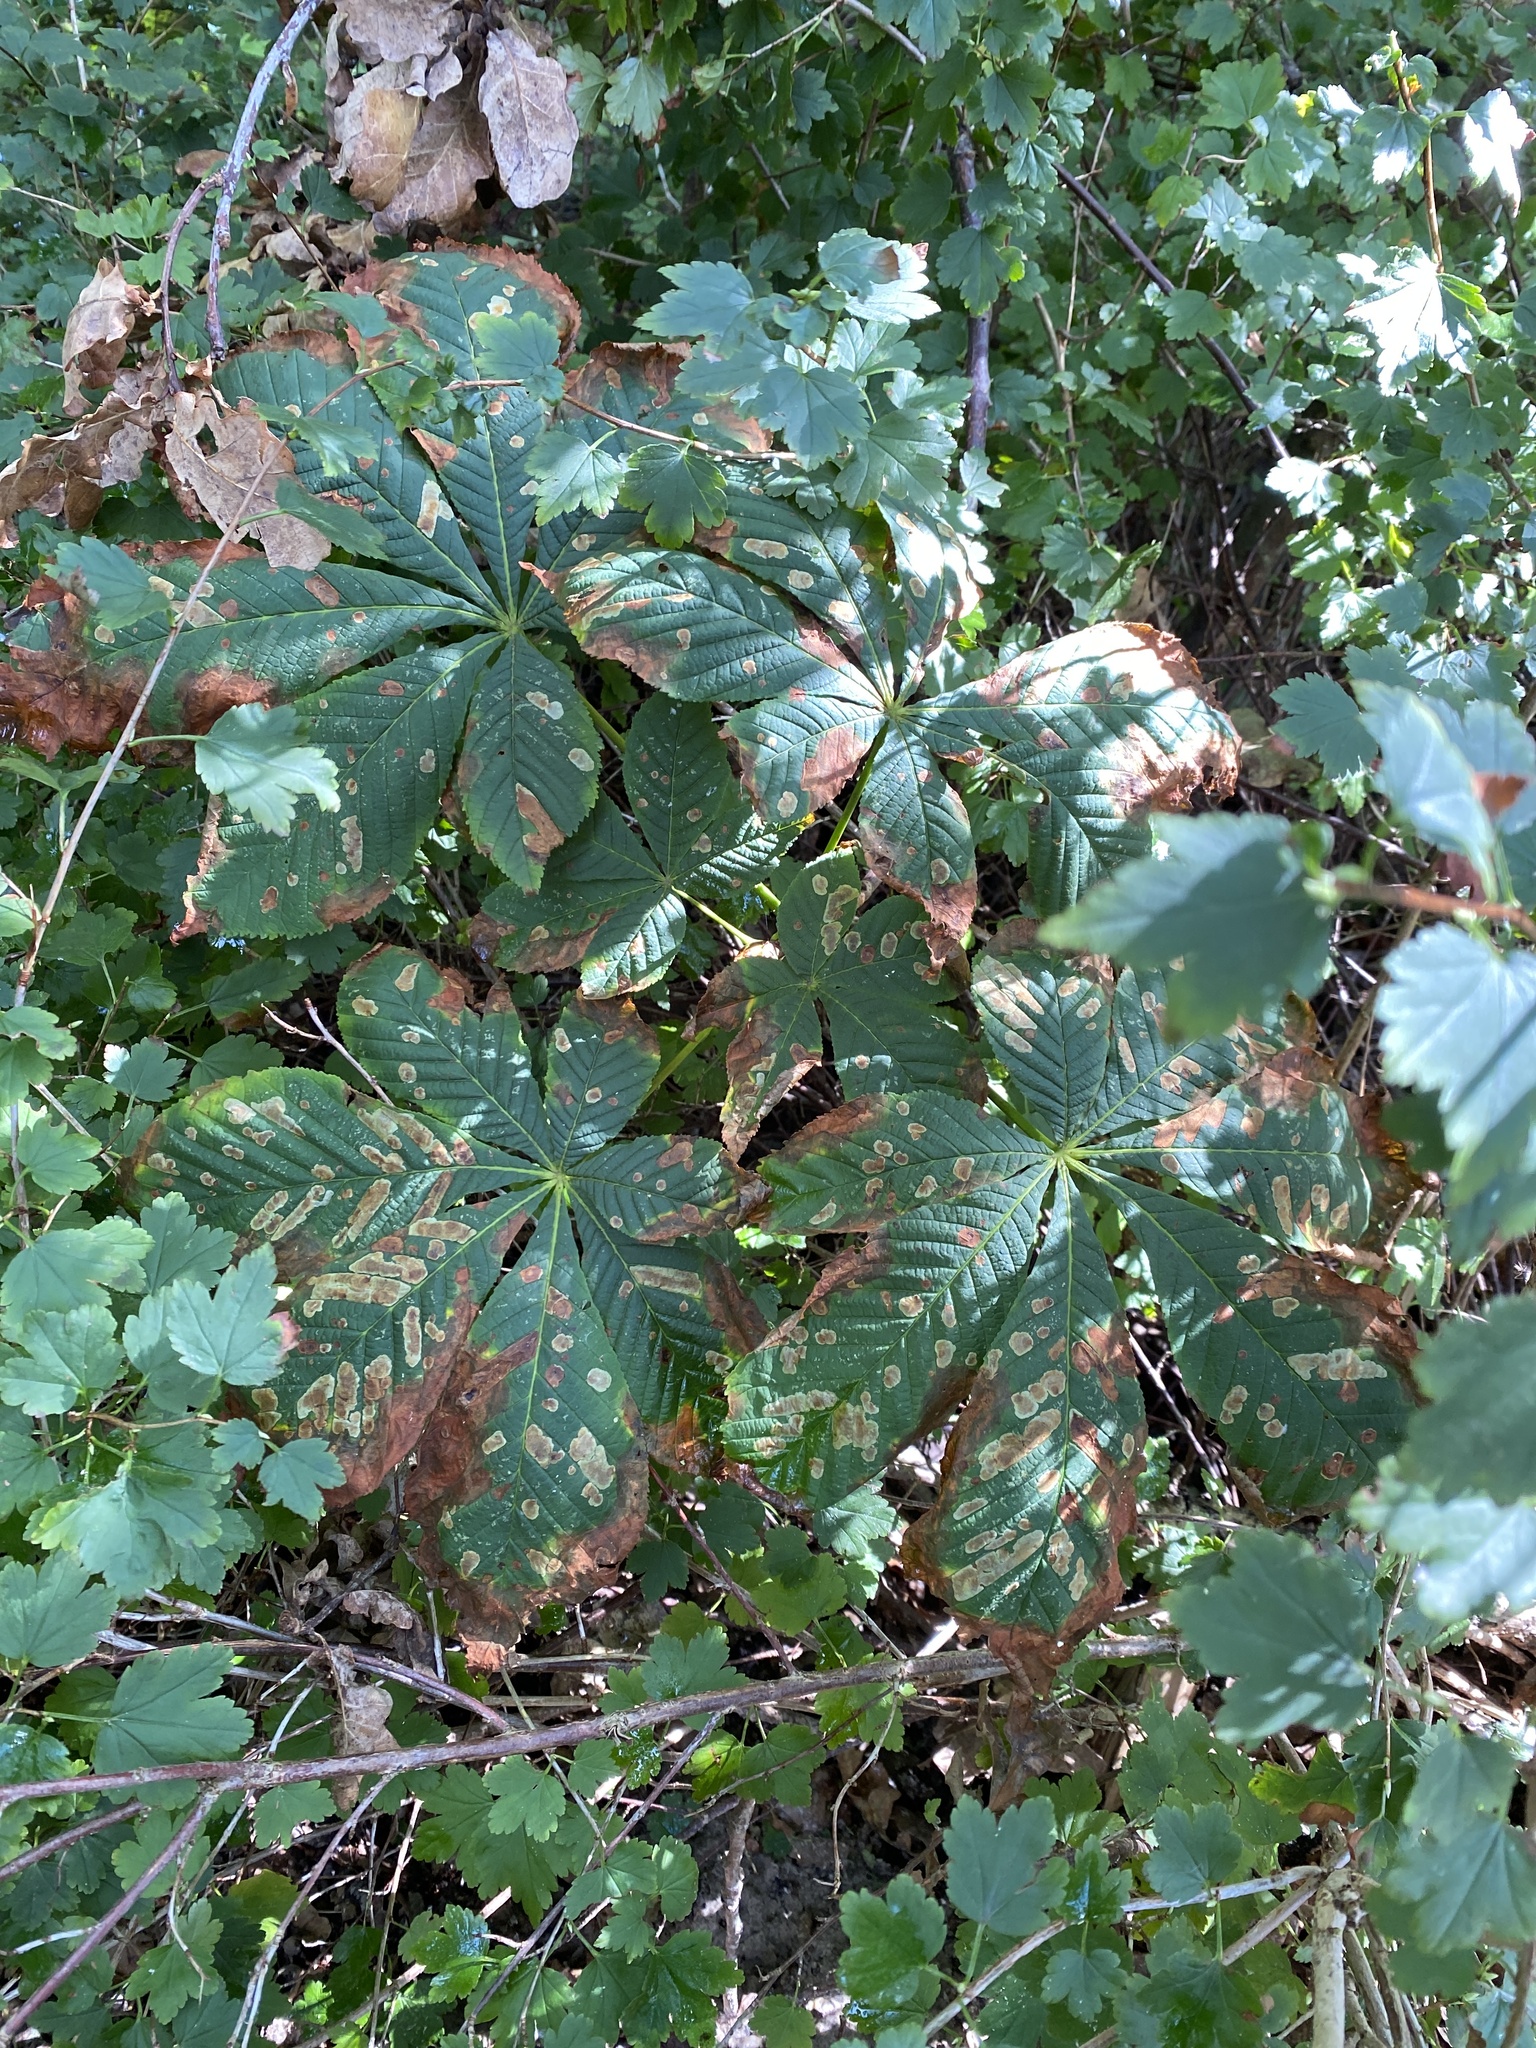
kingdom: Animalia
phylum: Arthropoda
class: Insecta
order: Lepidoptera
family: Gracillariidae
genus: Cameraria
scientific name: Cameraria ohridella
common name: Horse-chestnut leaf-miner
